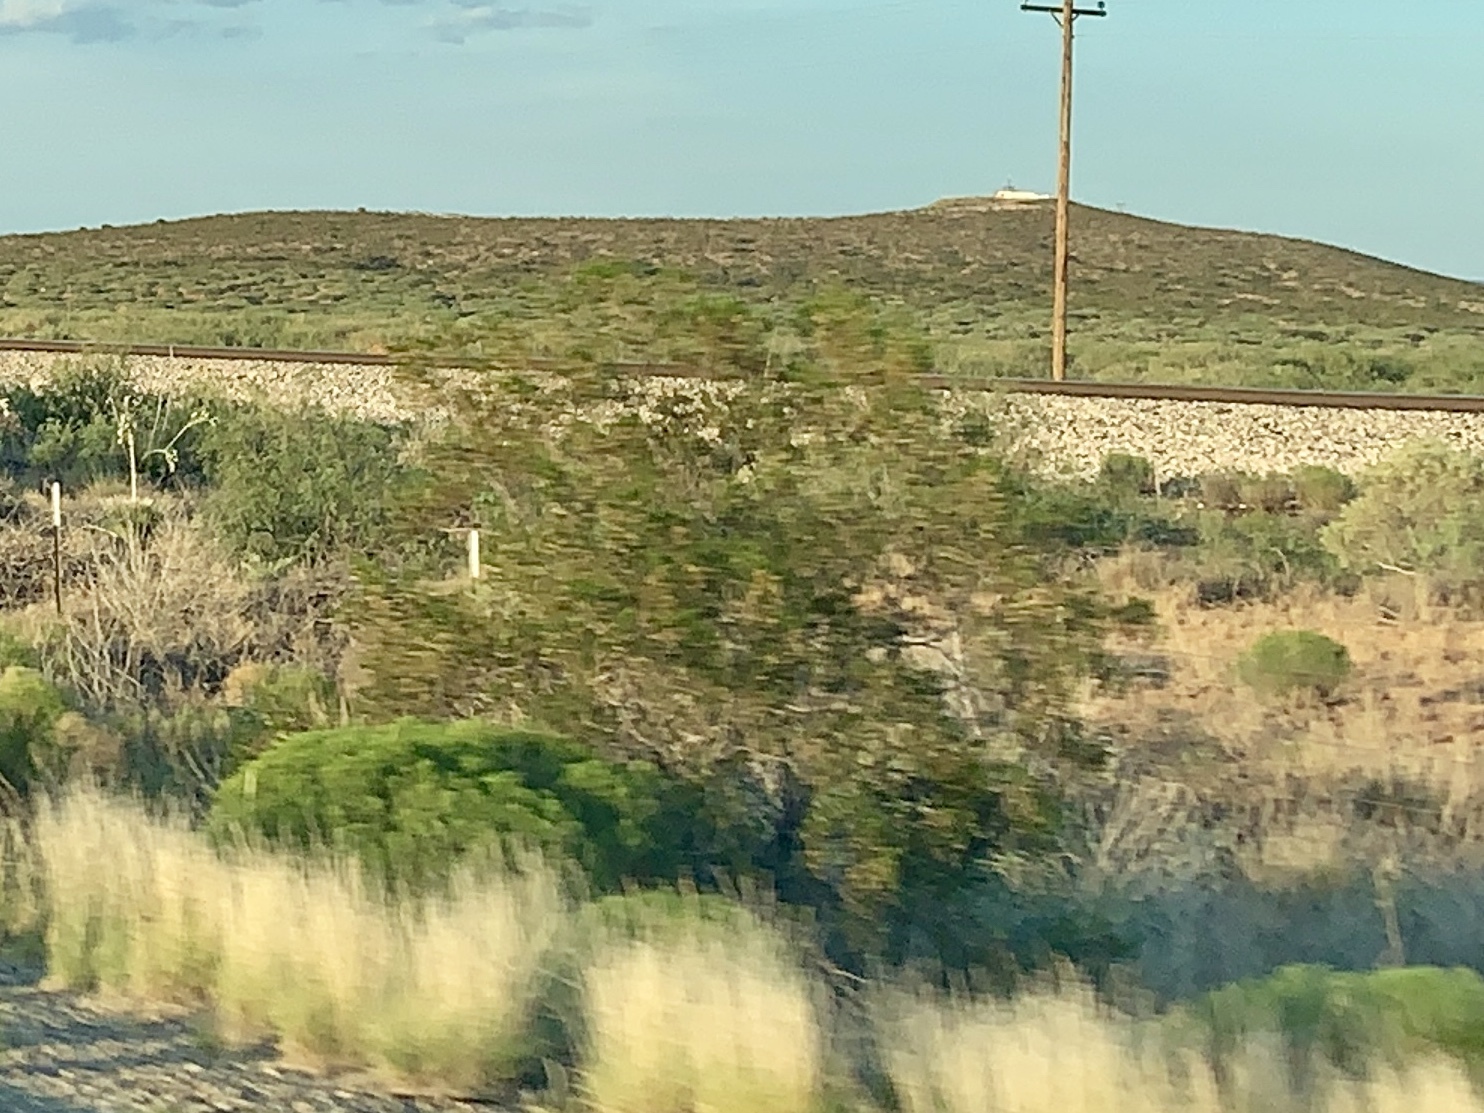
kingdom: Plantae
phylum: Tracheophyta
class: Magnoliopsida
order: Zygophyllales
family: Zygophyllaceae
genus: Larrea
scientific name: Larrea tridentata
